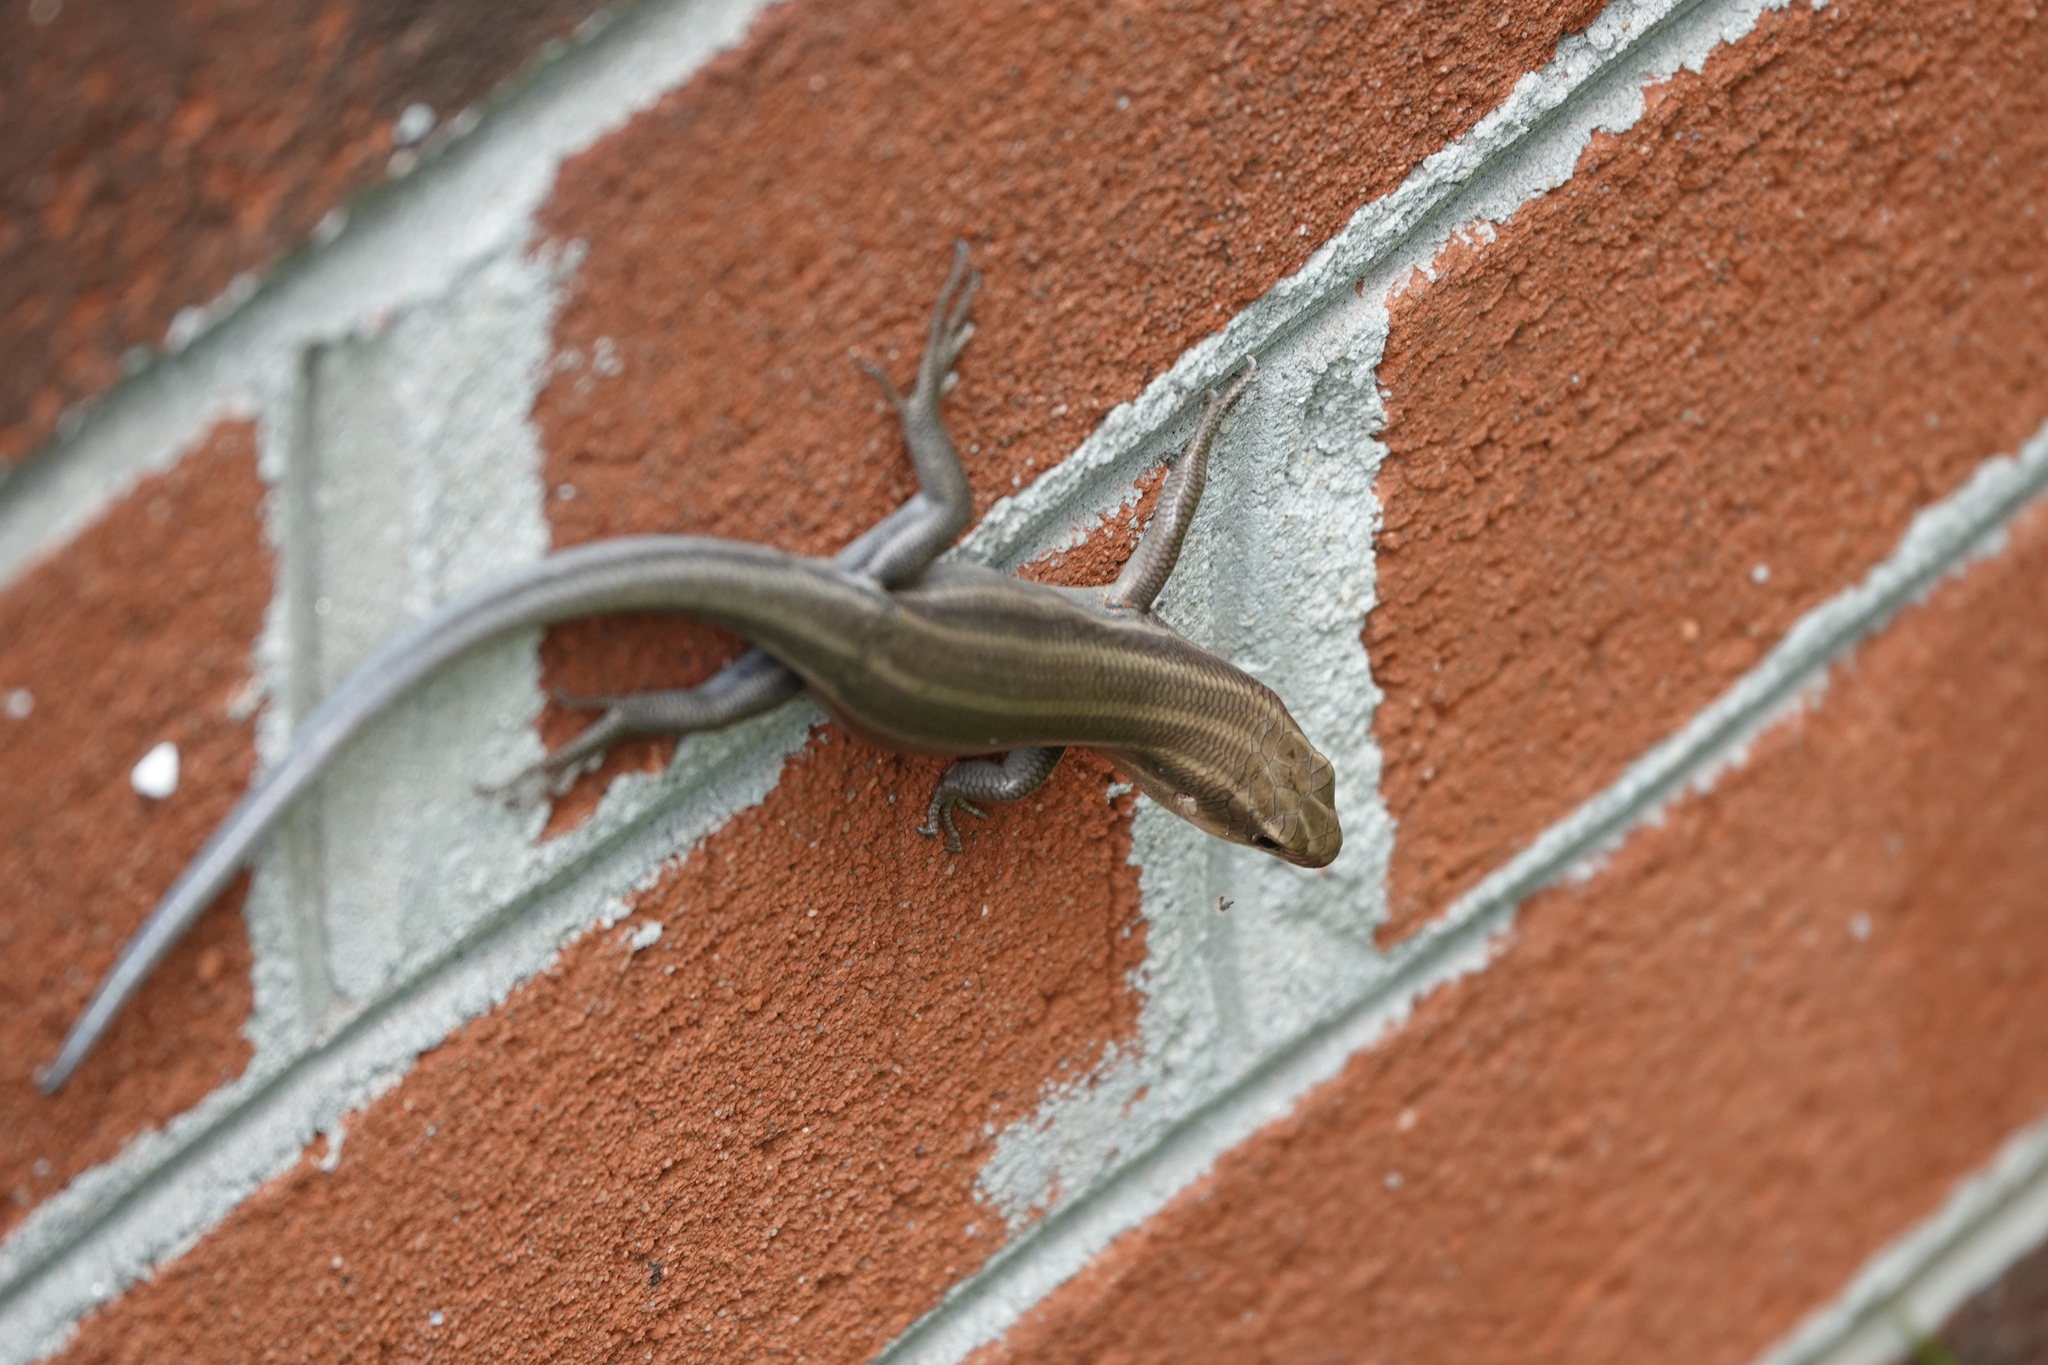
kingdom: Animalia
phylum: Chordata
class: Squamata
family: Scincidae
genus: Plestiodon
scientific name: Plestiodon fasciatus
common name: Five-lined skink
